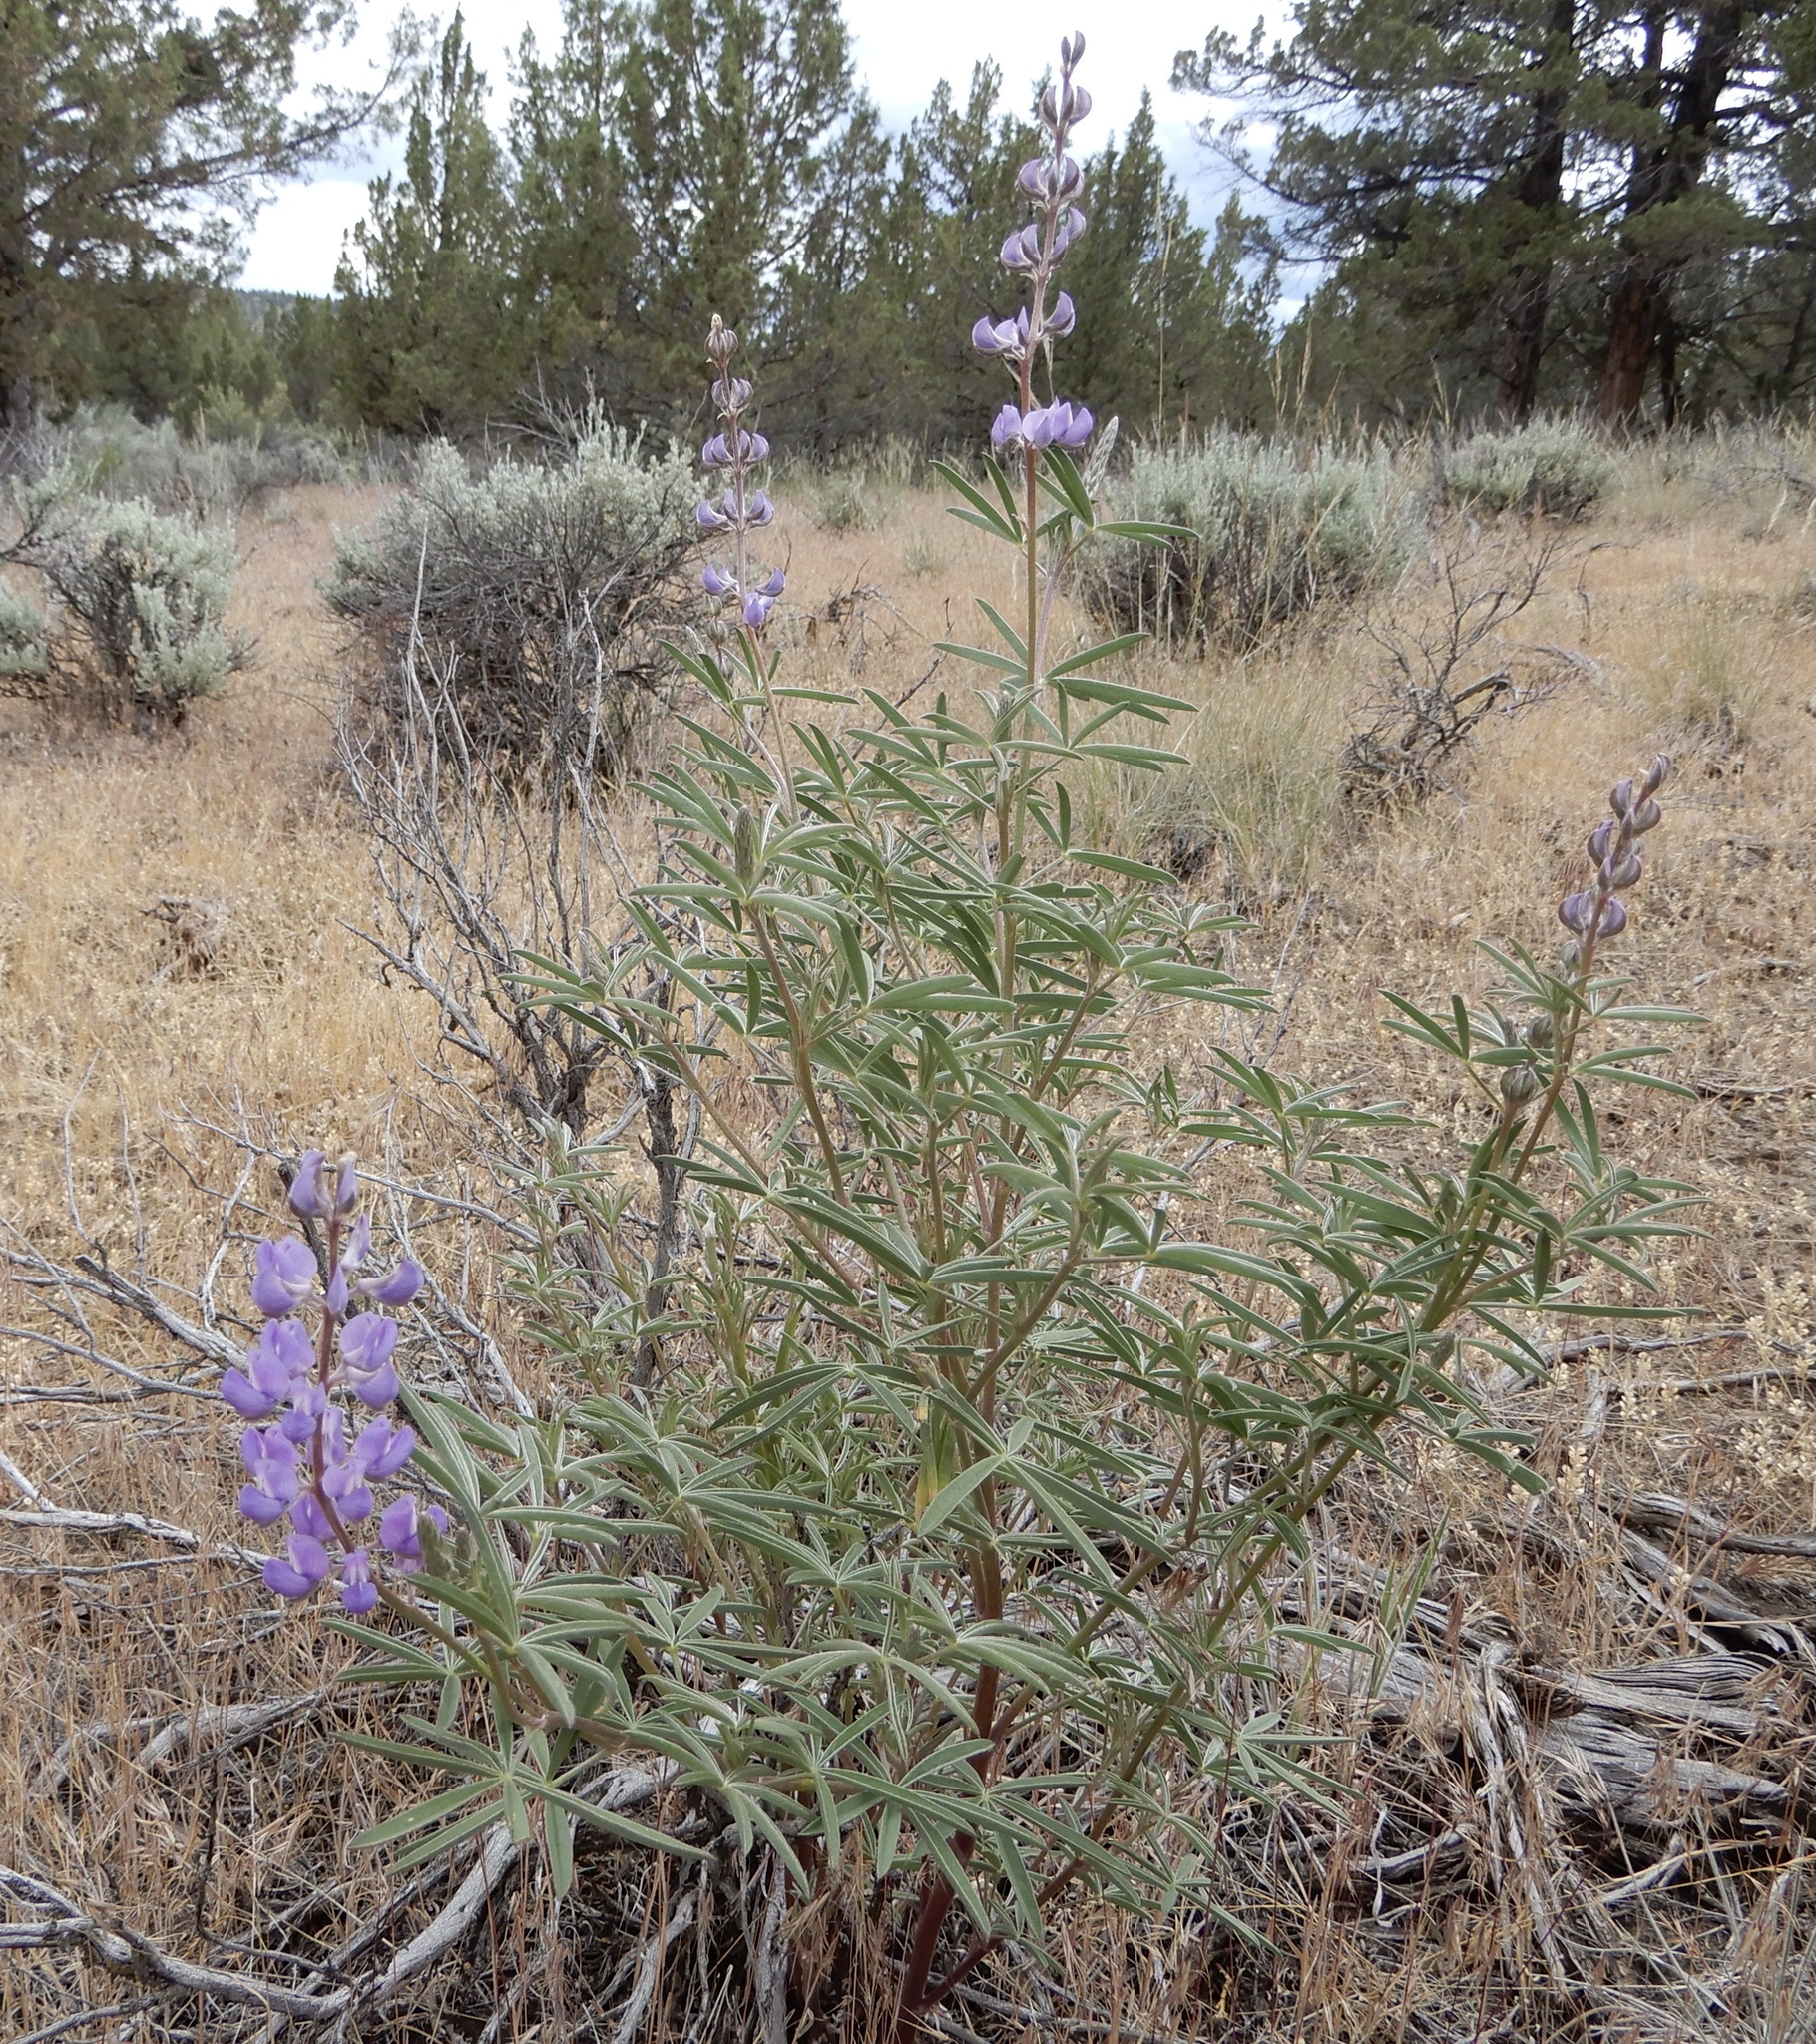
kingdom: Plantae
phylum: Tracheophyta
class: Magnoliopsida
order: Fabales
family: Fabaceae
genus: Lupinus
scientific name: Lupinus argenteus
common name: Silvery lupine
